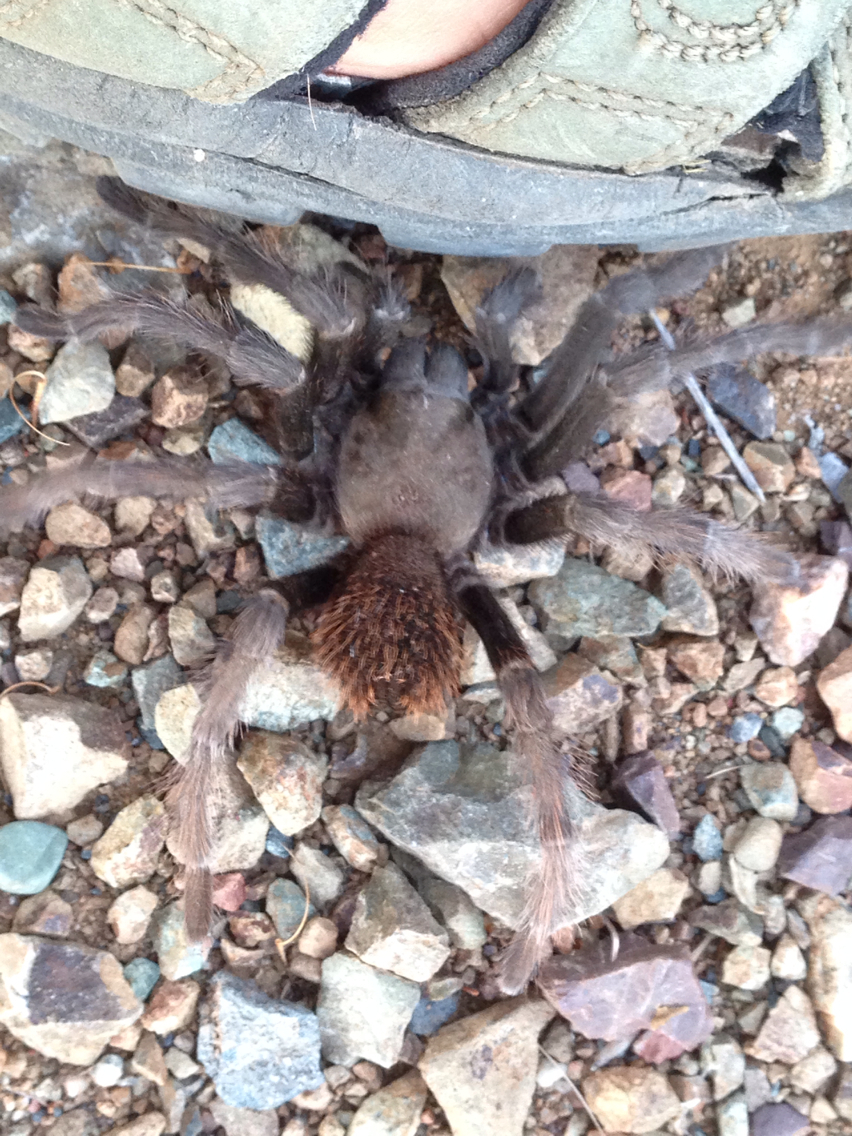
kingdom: Animalia
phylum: Arthropoda
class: Arachnida
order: Araneae
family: Theraphosidae
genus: Aphonopelma
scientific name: Aphonopelma iodius
